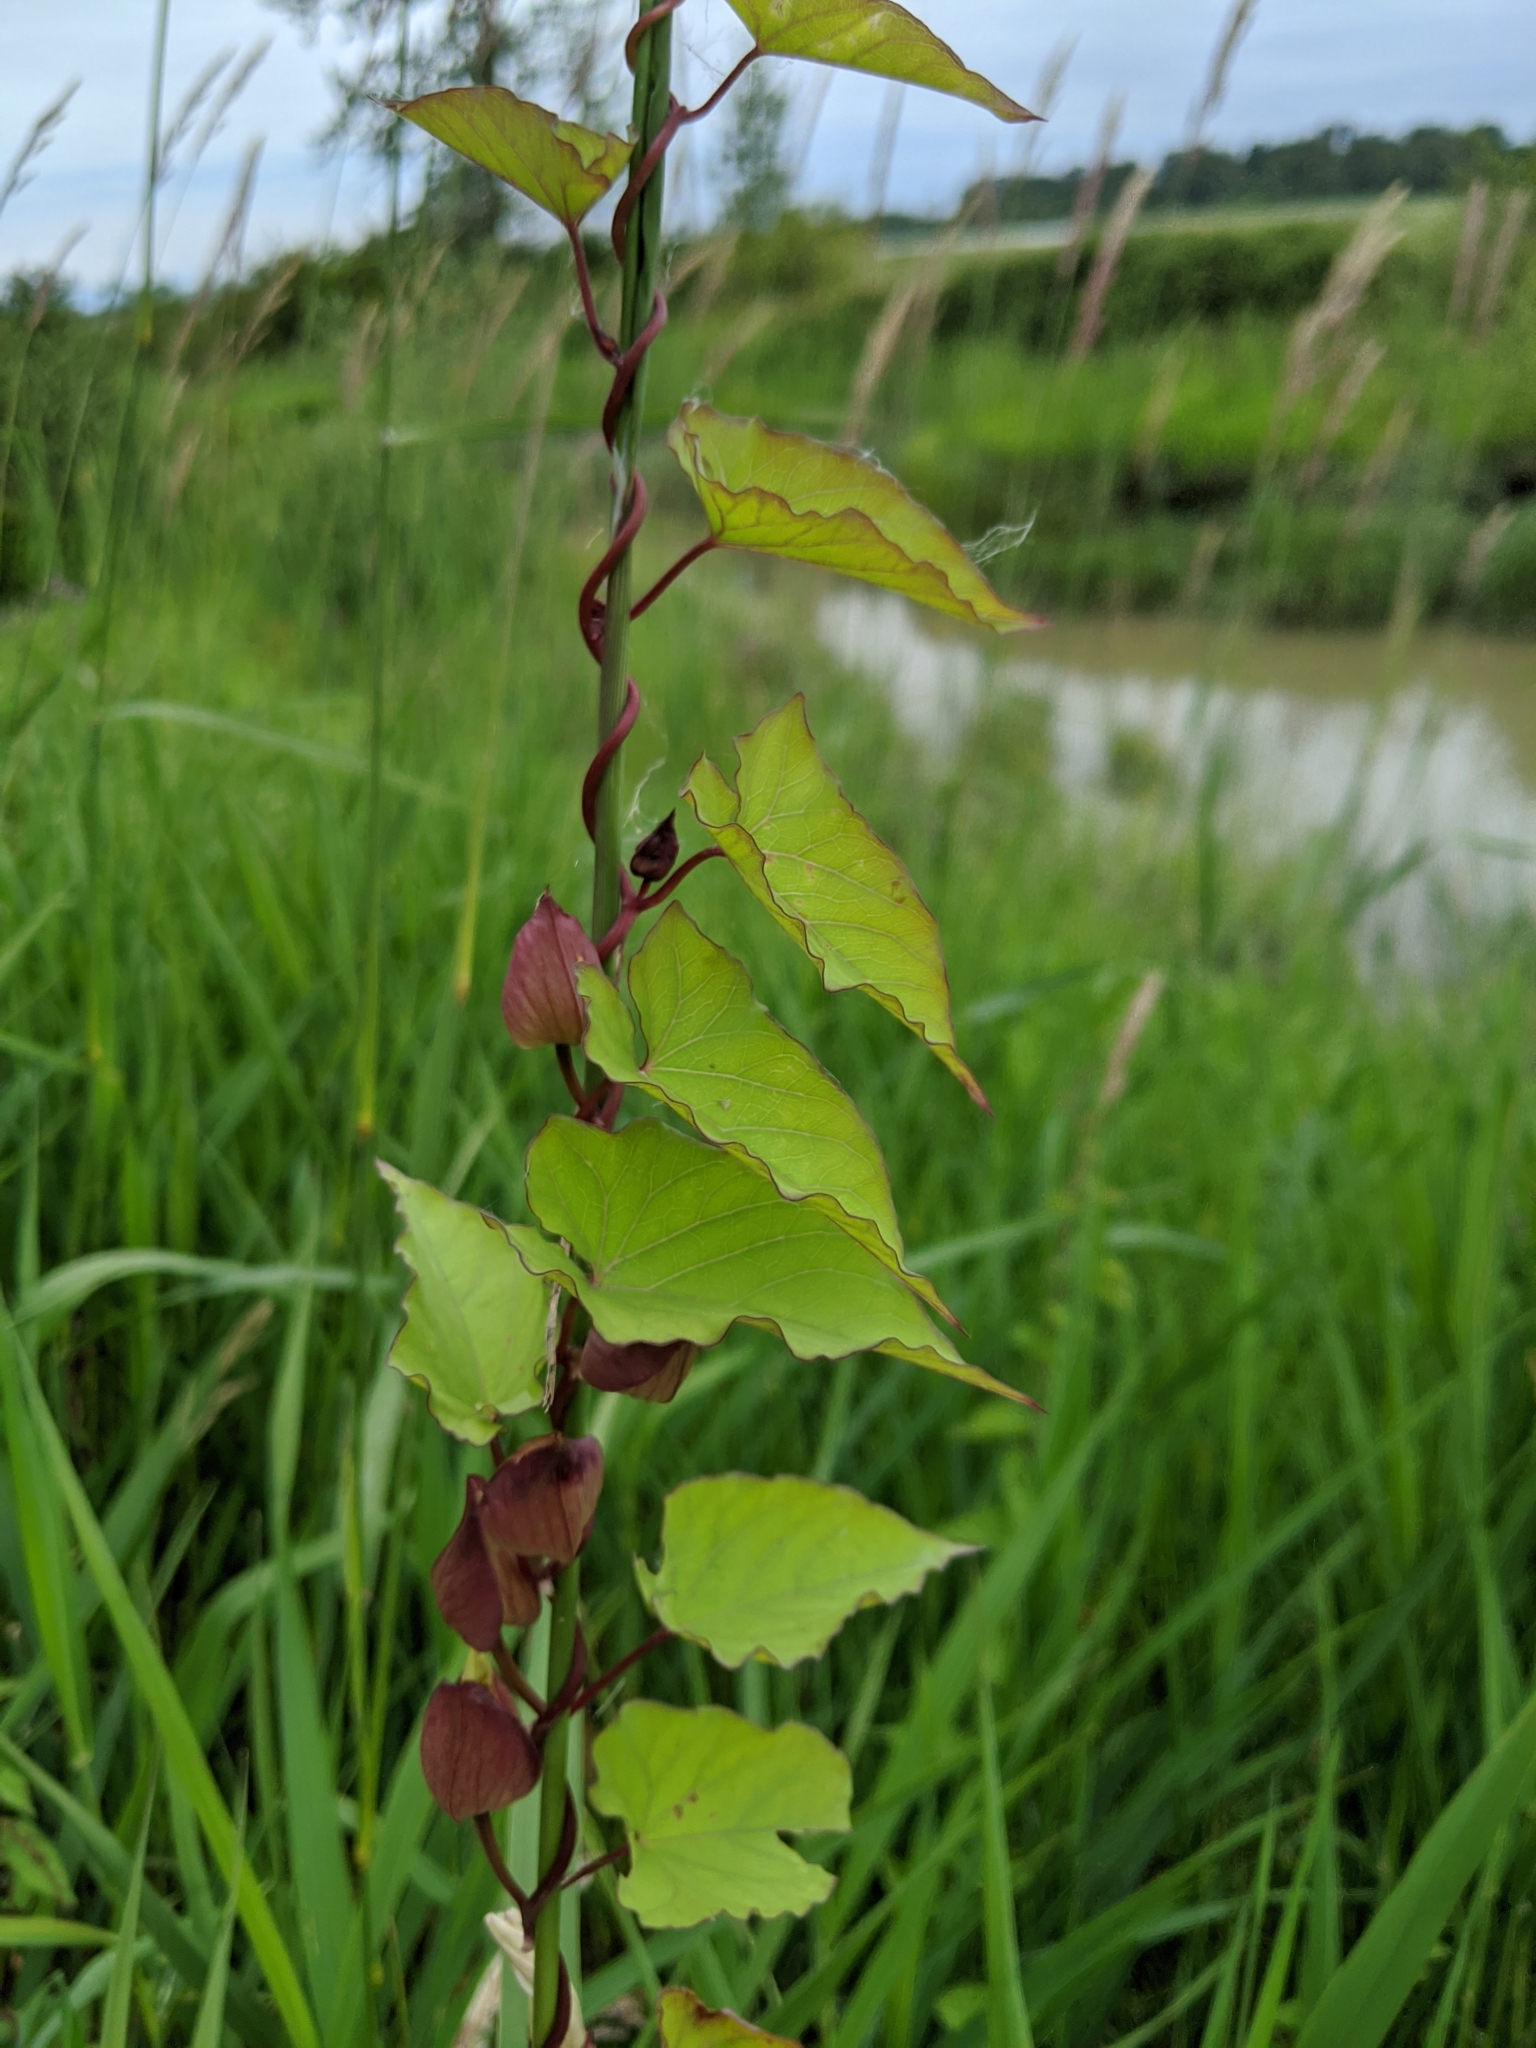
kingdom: Plantae
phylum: Tracheophyta
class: Magnoliopsida
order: Solanales
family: Convolvulaceae
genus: Calystegia
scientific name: Calystegia silvatica
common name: Large bindweed
